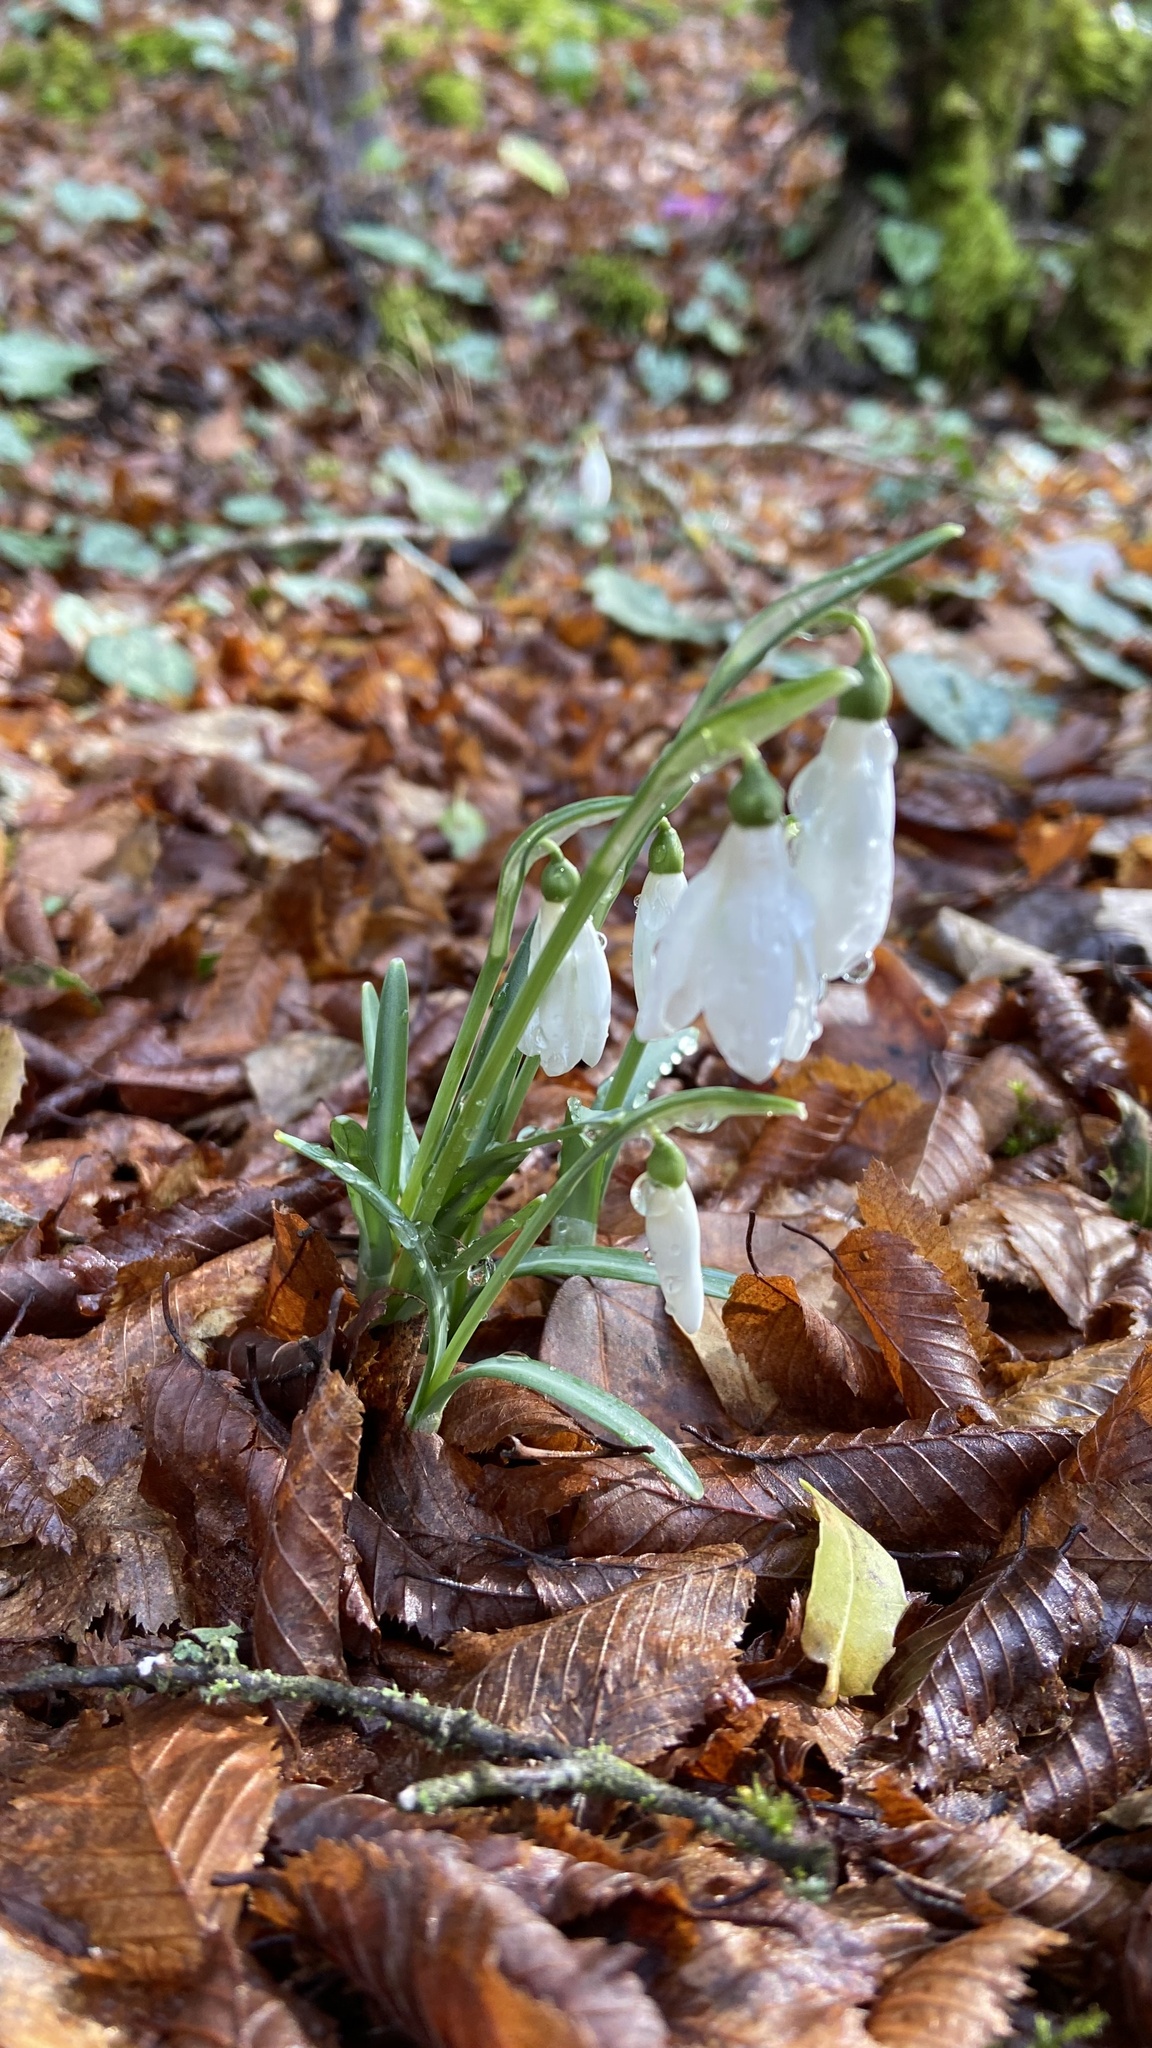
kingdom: Plantae
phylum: Tracheophyta
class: Liliopsida
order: Asparagales
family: Amaryllidaceae
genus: Galanthus
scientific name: Galanthus reginae-olgae
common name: Queen olga's snowdrop
